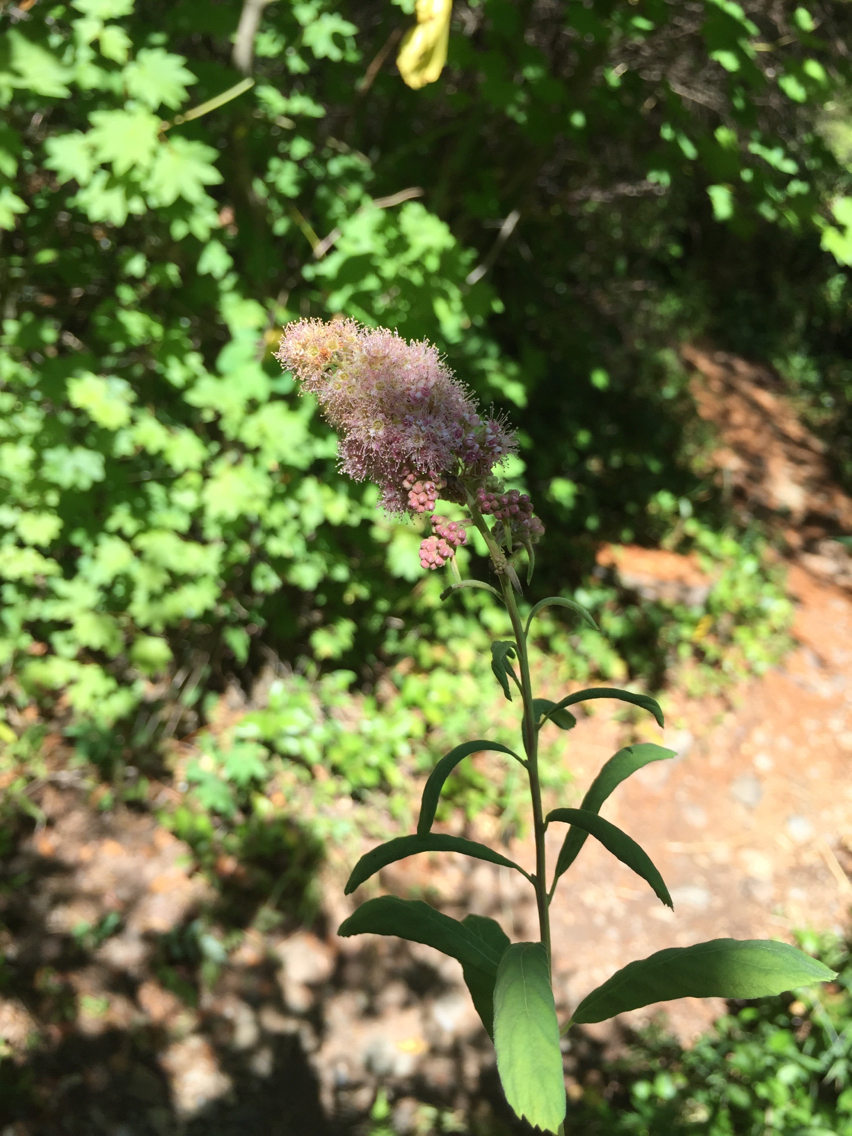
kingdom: Plantae
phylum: Tracheophyta
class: Magnoliopsida
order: Rosales
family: Rosaceae
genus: Spiraea
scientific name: Spiraea douglasii
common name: Steeplebush
